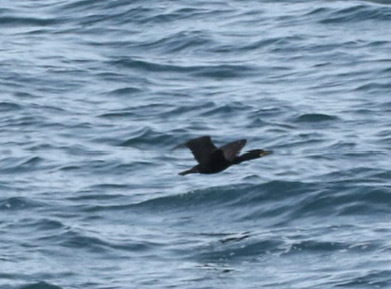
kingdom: Animalia
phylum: Chordata
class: Aves
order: Suliformes
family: Phalacrocoracidae
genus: Phalacrocorax
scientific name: Phalacrocorax carbo
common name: Great cormorant
